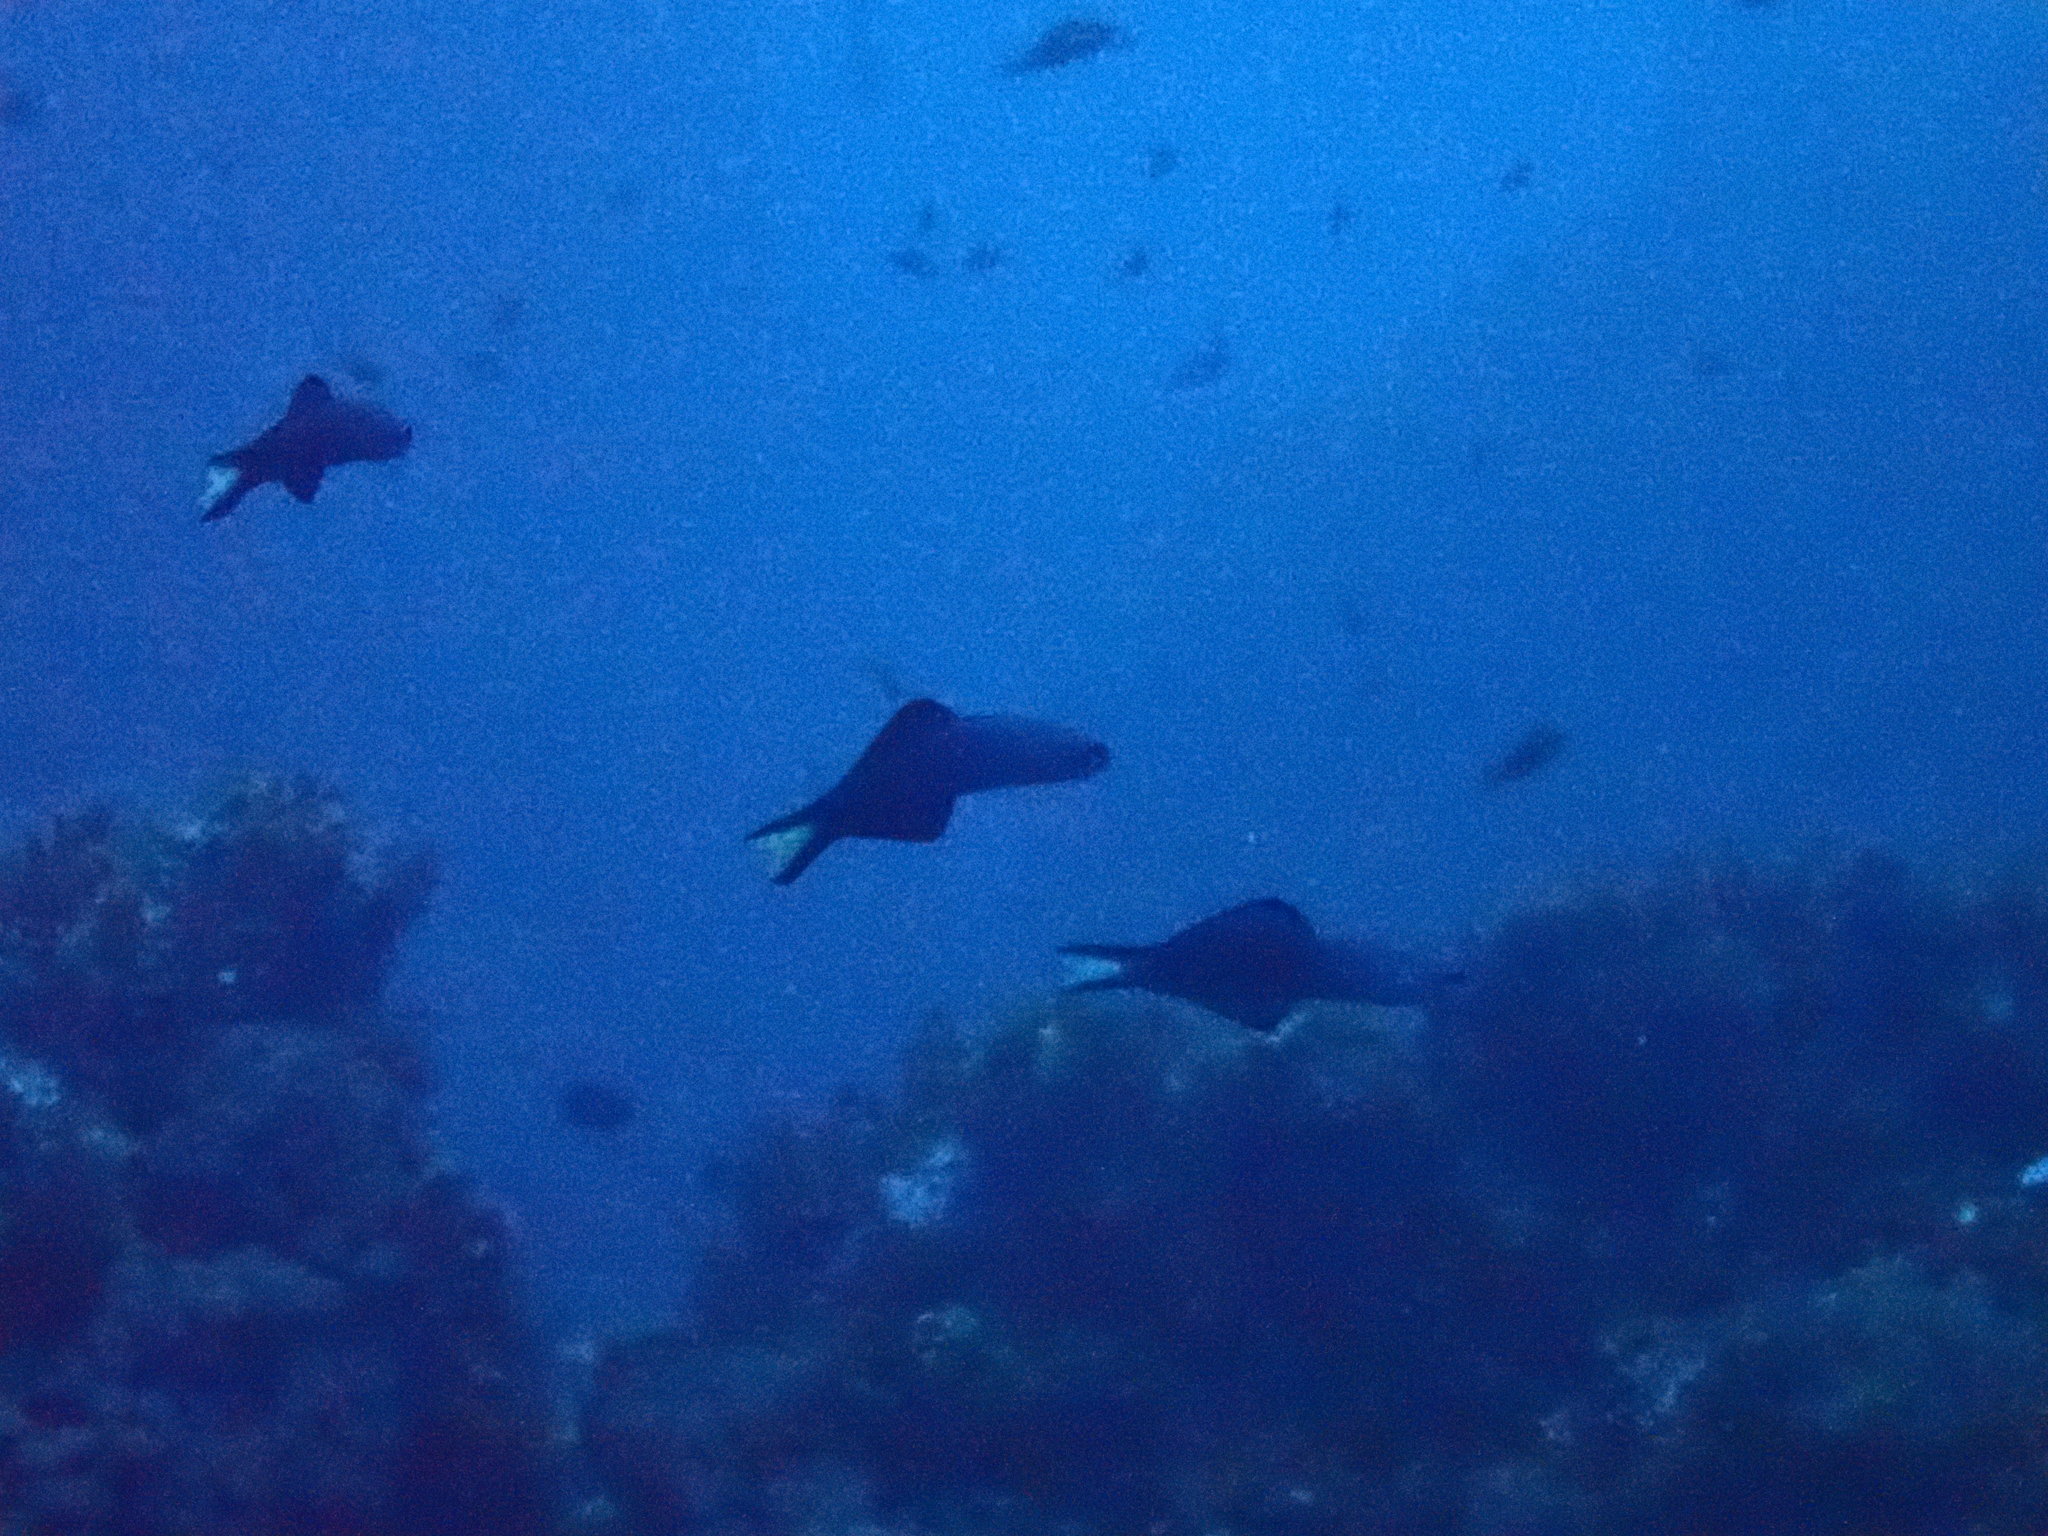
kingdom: Animalia
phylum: Chordata
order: Perciformes
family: Microdesmidae
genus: Ptereleotris
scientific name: Ptereleotris evides
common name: Blackfin dartfish
